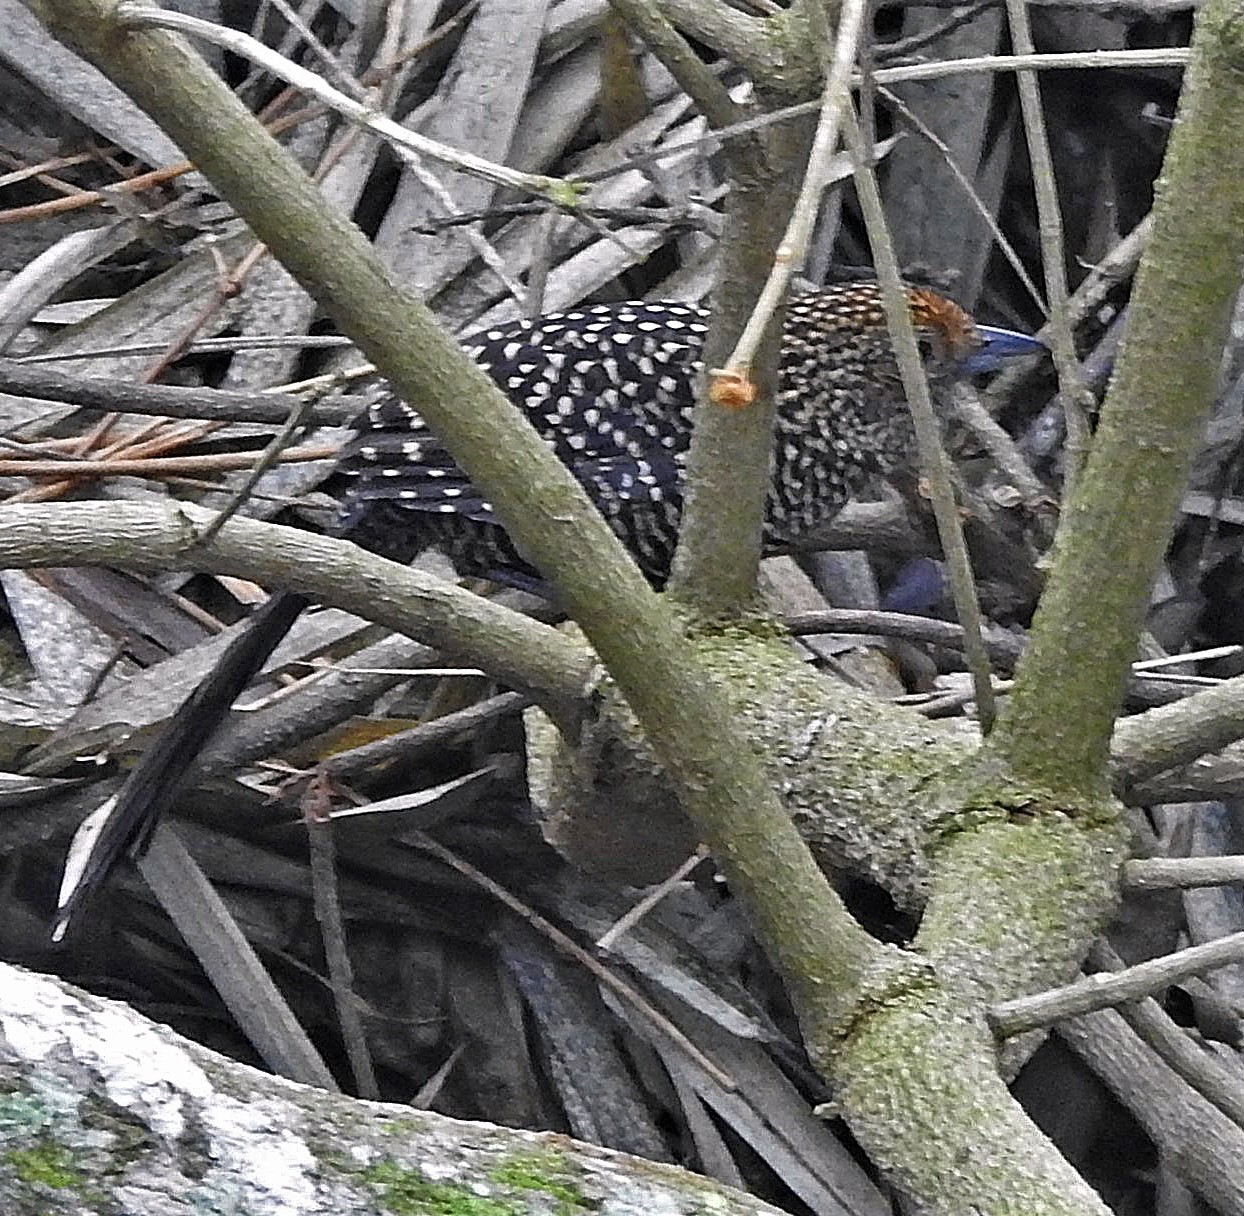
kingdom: Animalia
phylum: Chordata
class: Aves
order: Passeriformes
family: Thamnophilidae
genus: Mackenziaena
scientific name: Mackenziaena leachii
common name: Large-tailed antshrike
